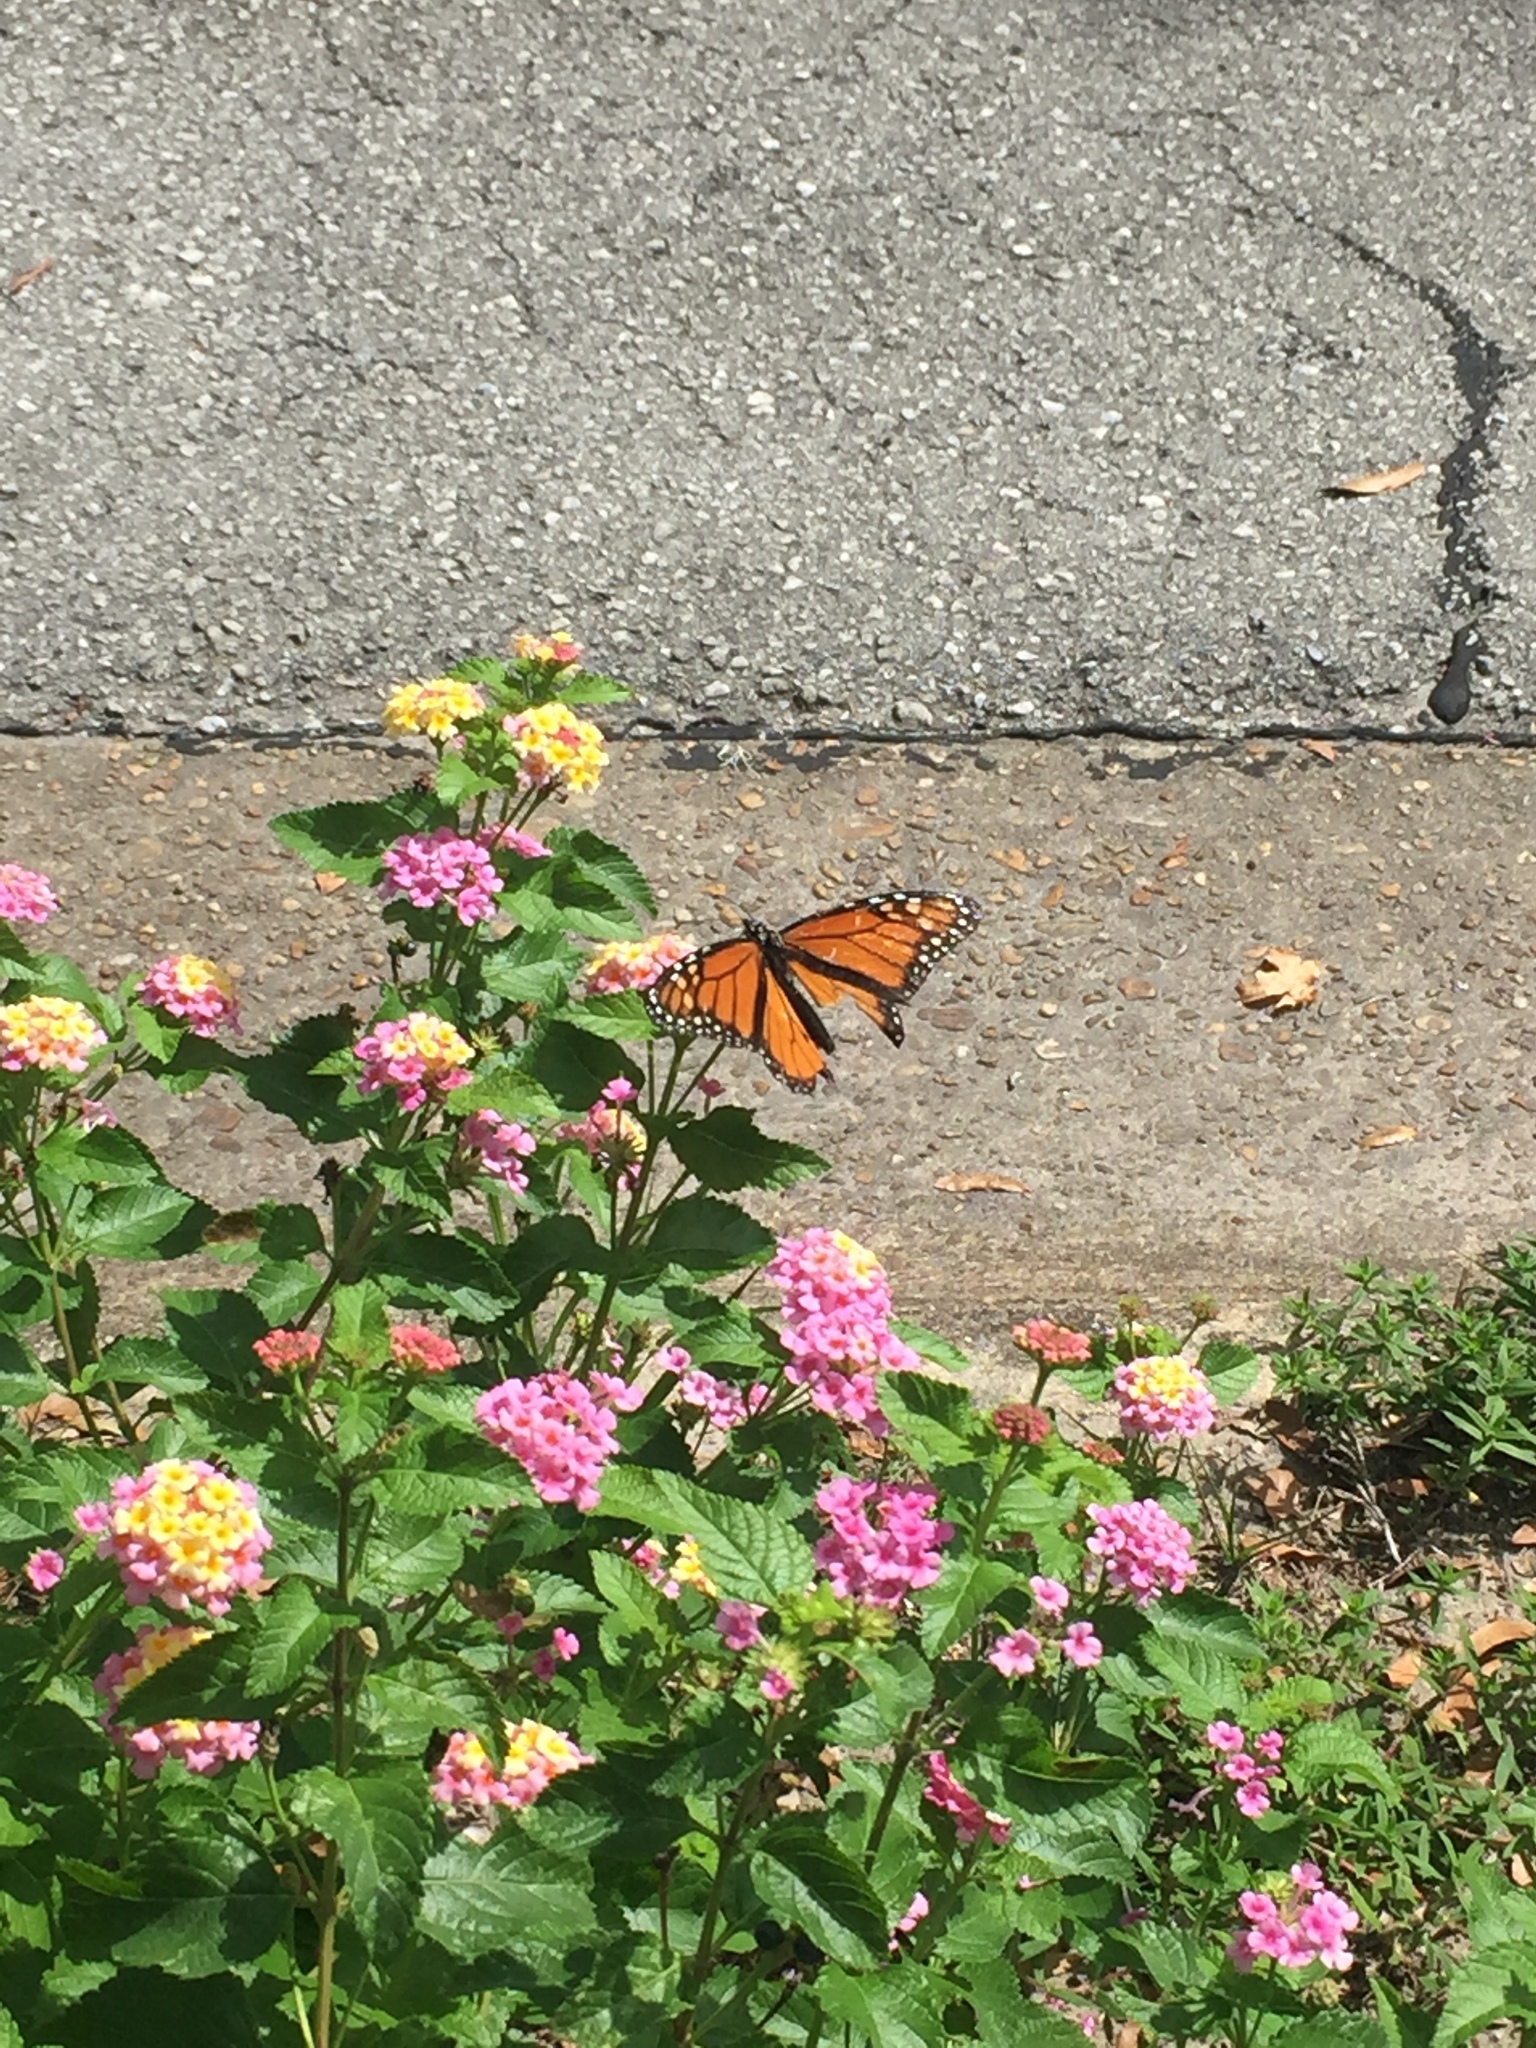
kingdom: Animalia
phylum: Arthropoda
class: Insecta
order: Lepidoptera
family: Nymphalidae
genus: Danaus
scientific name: Danaus plexippus
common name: Monarch
